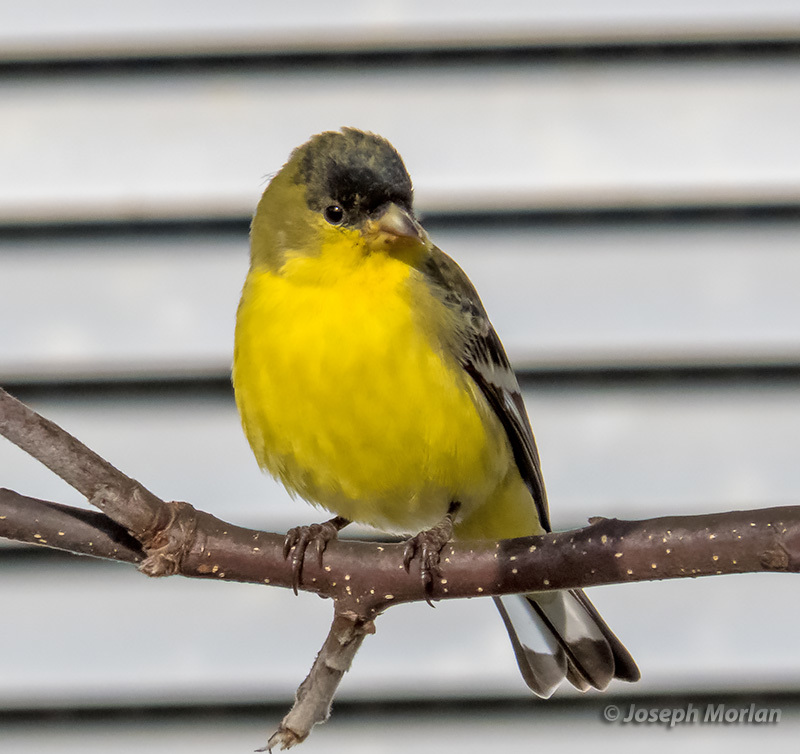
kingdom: Animalia
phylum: Chordata
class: Aves
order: Passeriformes
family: Fringillidae
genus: Spinus
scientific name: Spinus psaltria
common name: Lesser goldfinch
